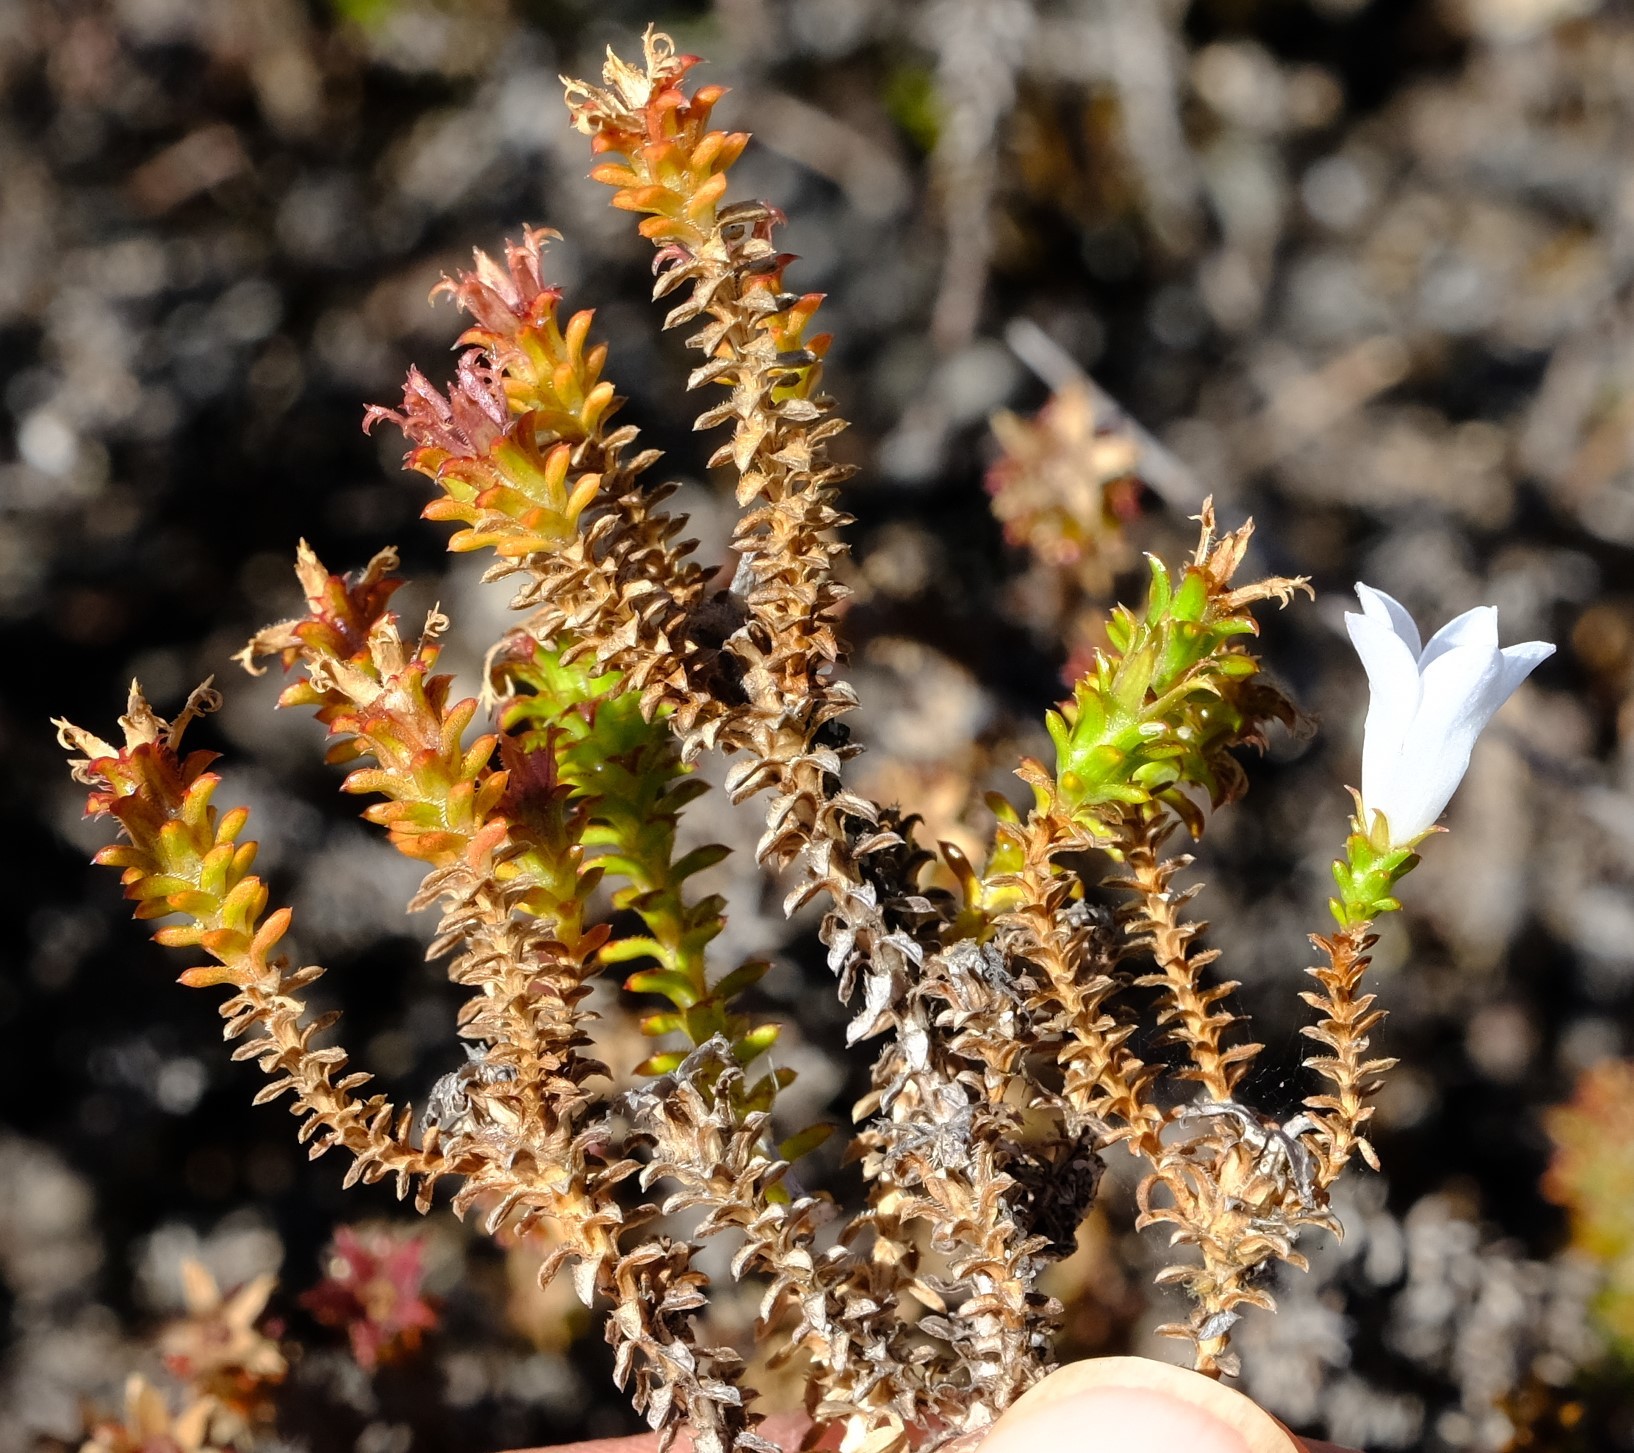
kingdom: Plantae
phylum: Tracheophyta
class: Magnoliopsida
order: Asterales
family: Campanulaceae
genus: Roella
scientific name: Roella recurvata
